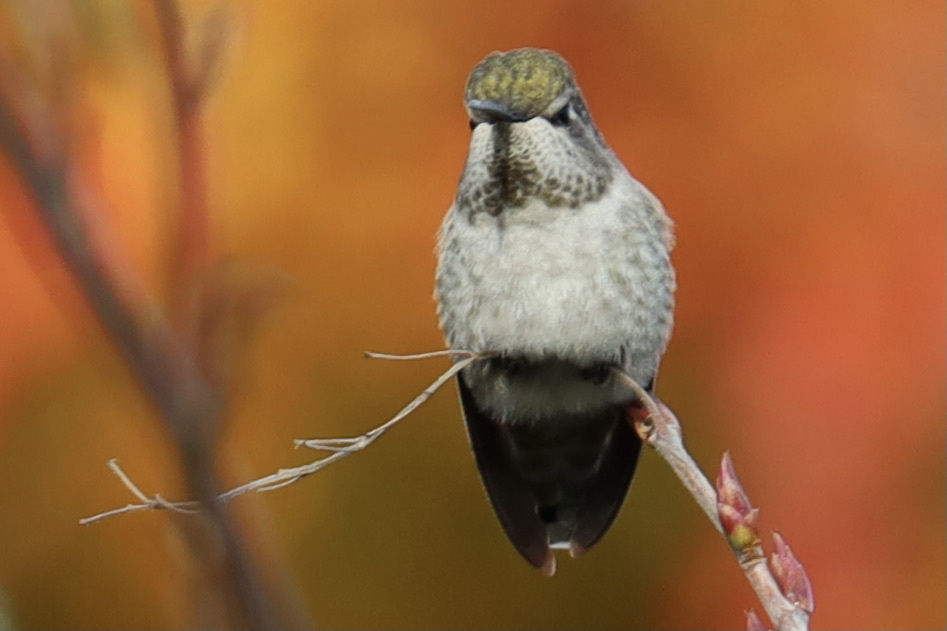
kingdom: Animalia
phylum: Chordata
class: Aves
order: Apodiformes
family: Trochilidae
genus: Calypte
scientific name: Calypte anna
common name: Anna's hummingbird
